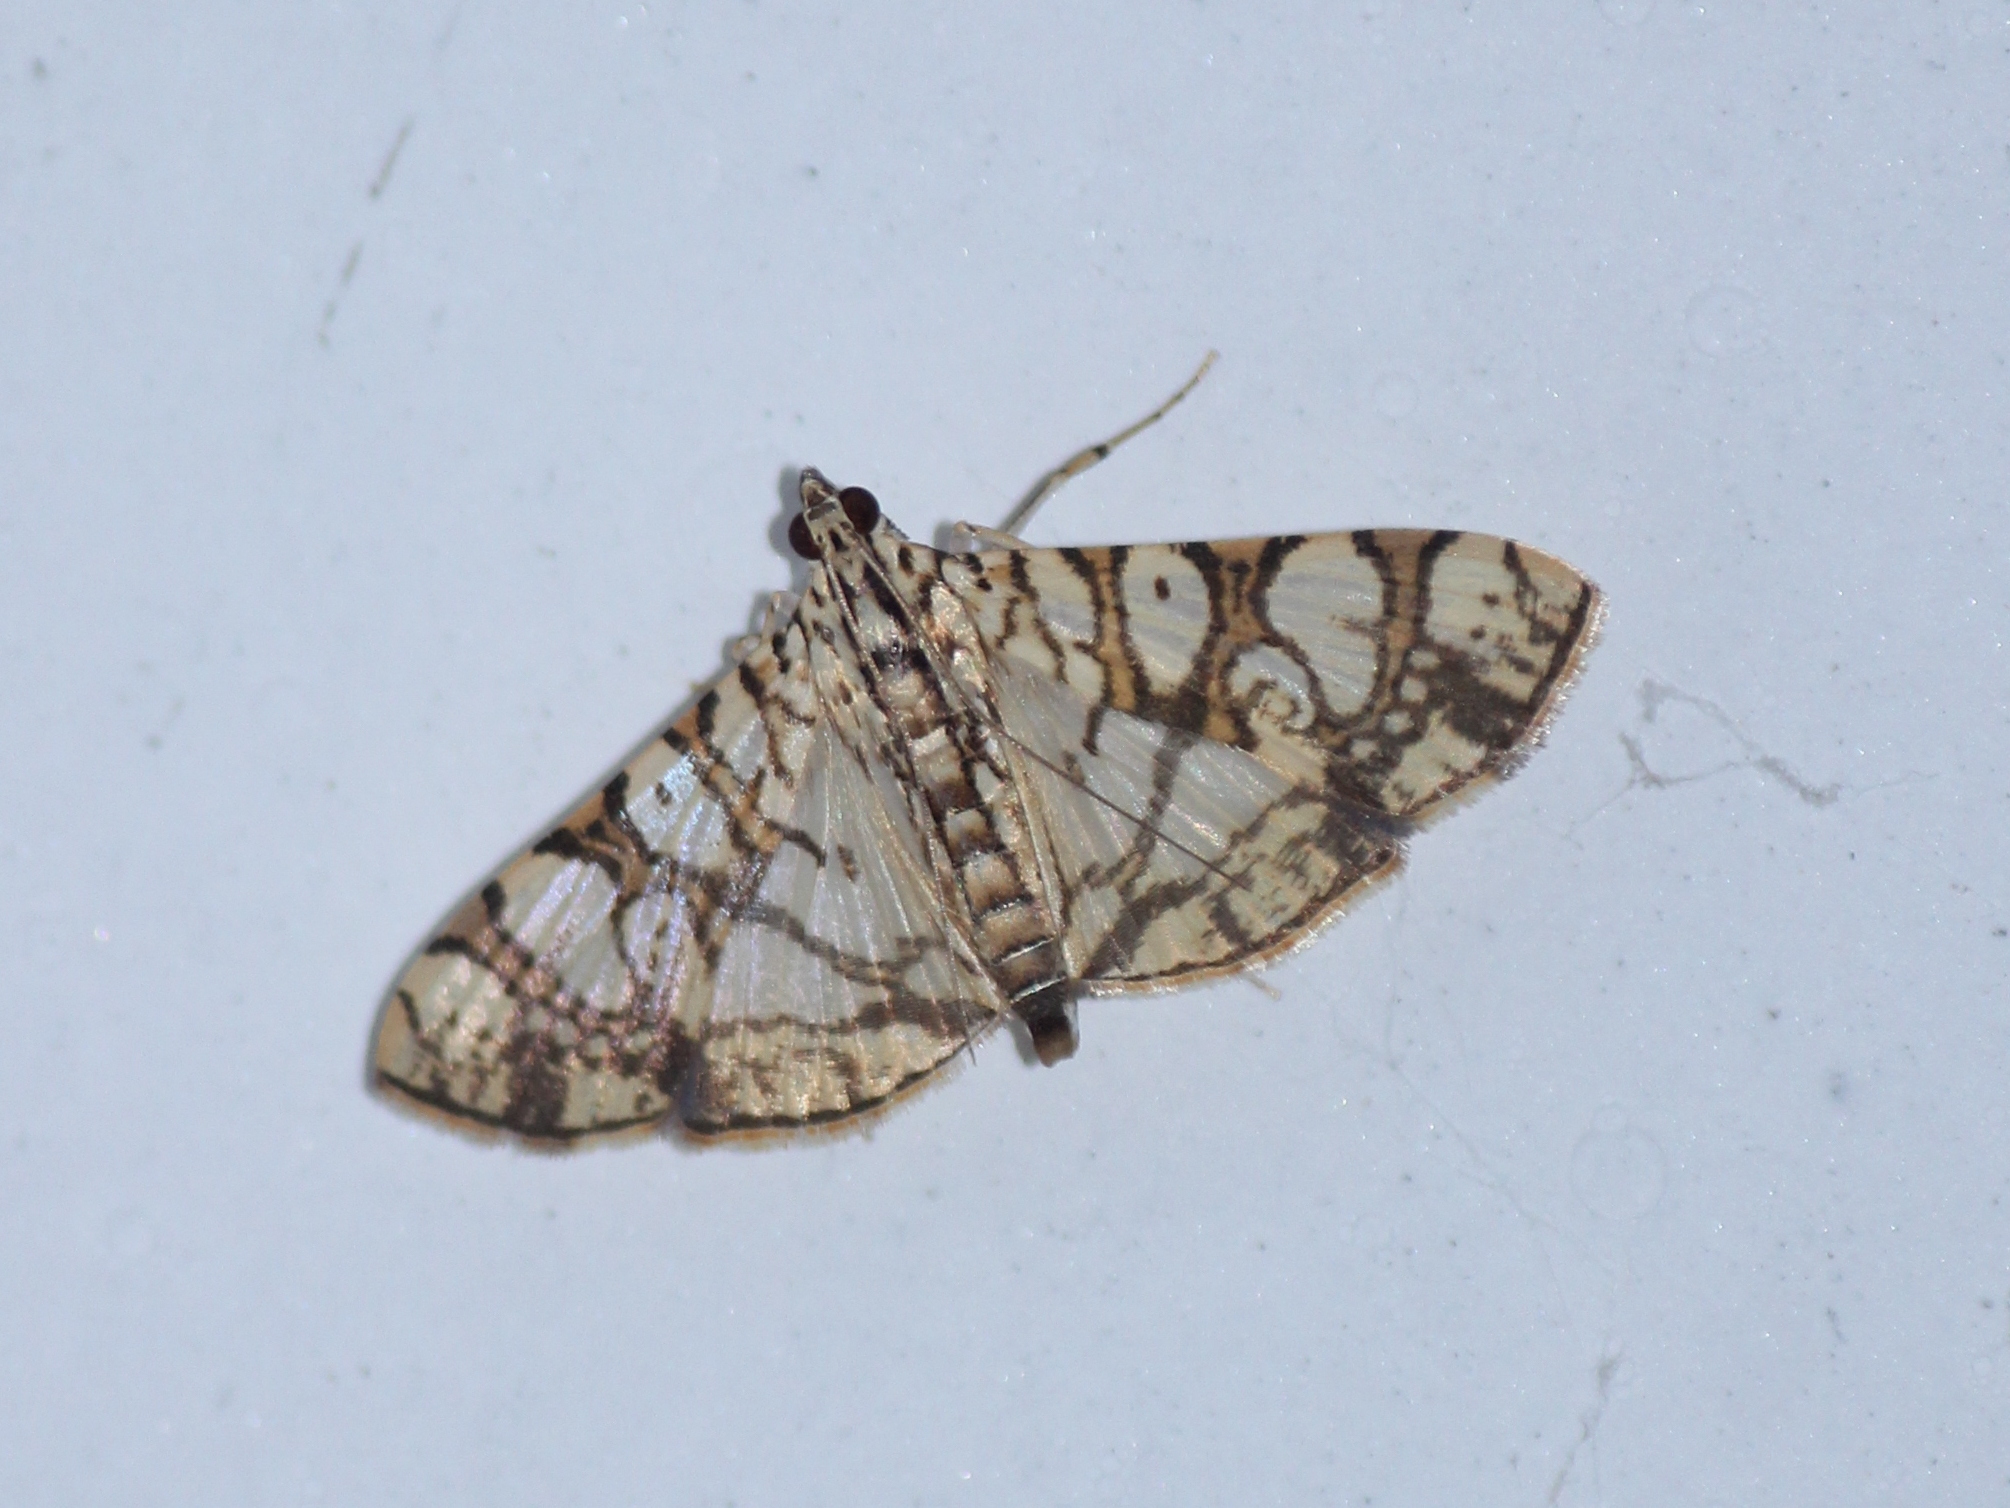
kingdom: Animalia
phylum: Arthropoda
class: Insecta
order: Lepidoptera
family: Crambidae
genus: Glyphodes
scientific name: Glyphodes caesalis
